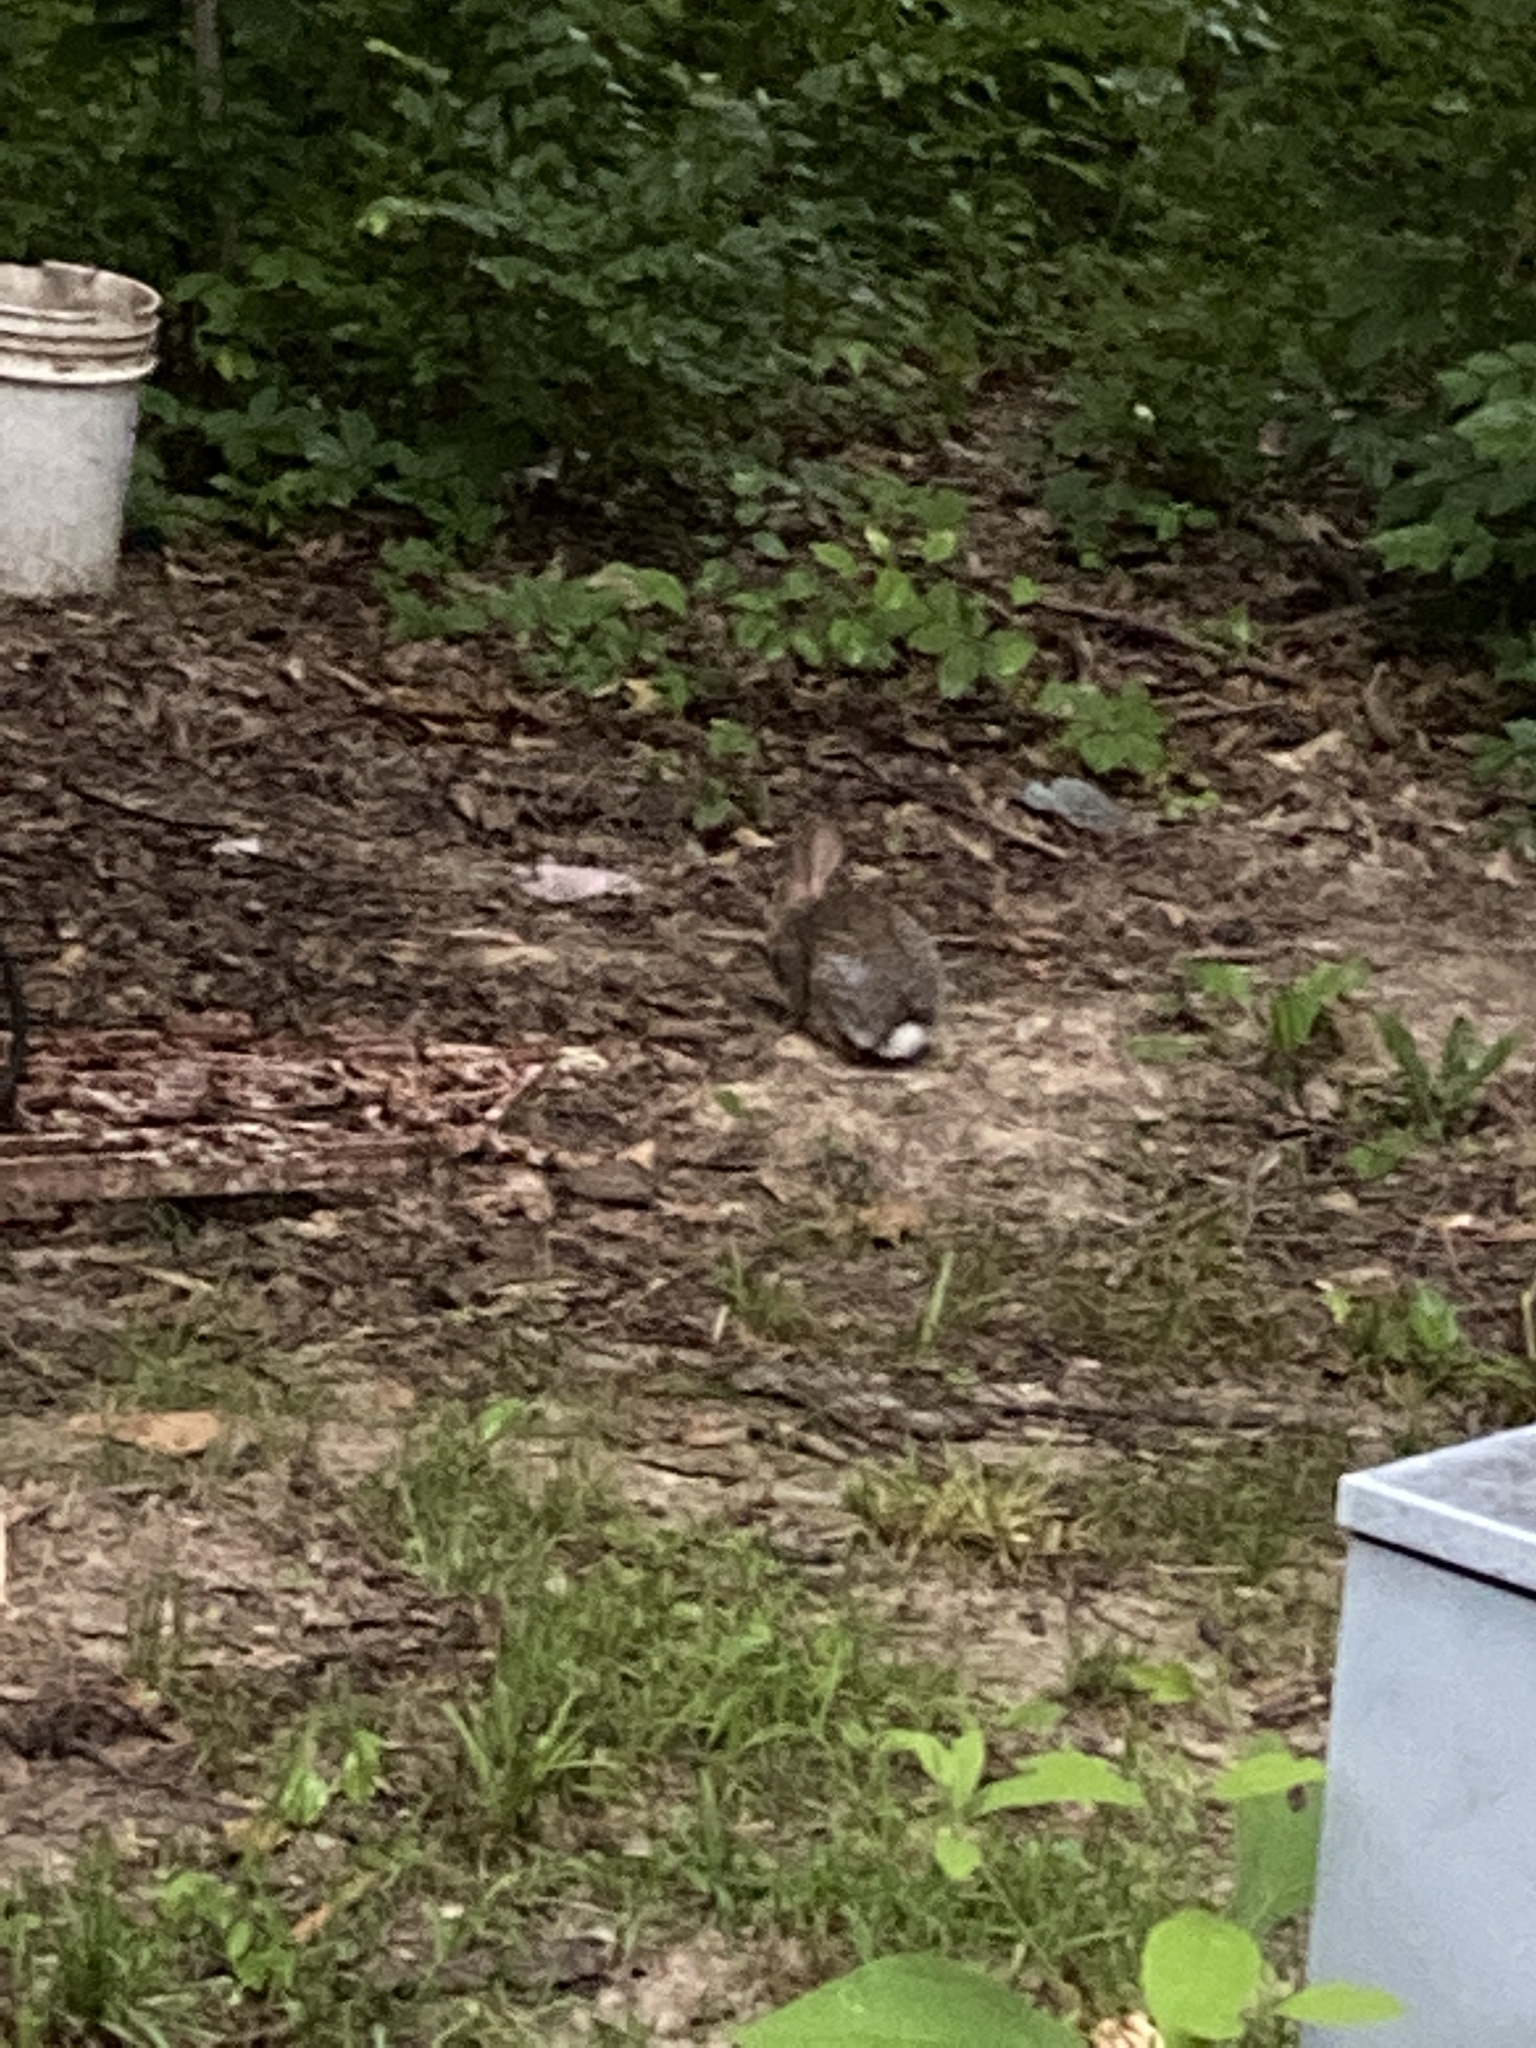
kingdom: Animalia
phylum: Chordata
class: Mammalia
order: Lagomorpha
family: Leporidae
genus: Sylvilagus
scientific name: Sylvilagus floridanus
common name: Eastern cottontail
